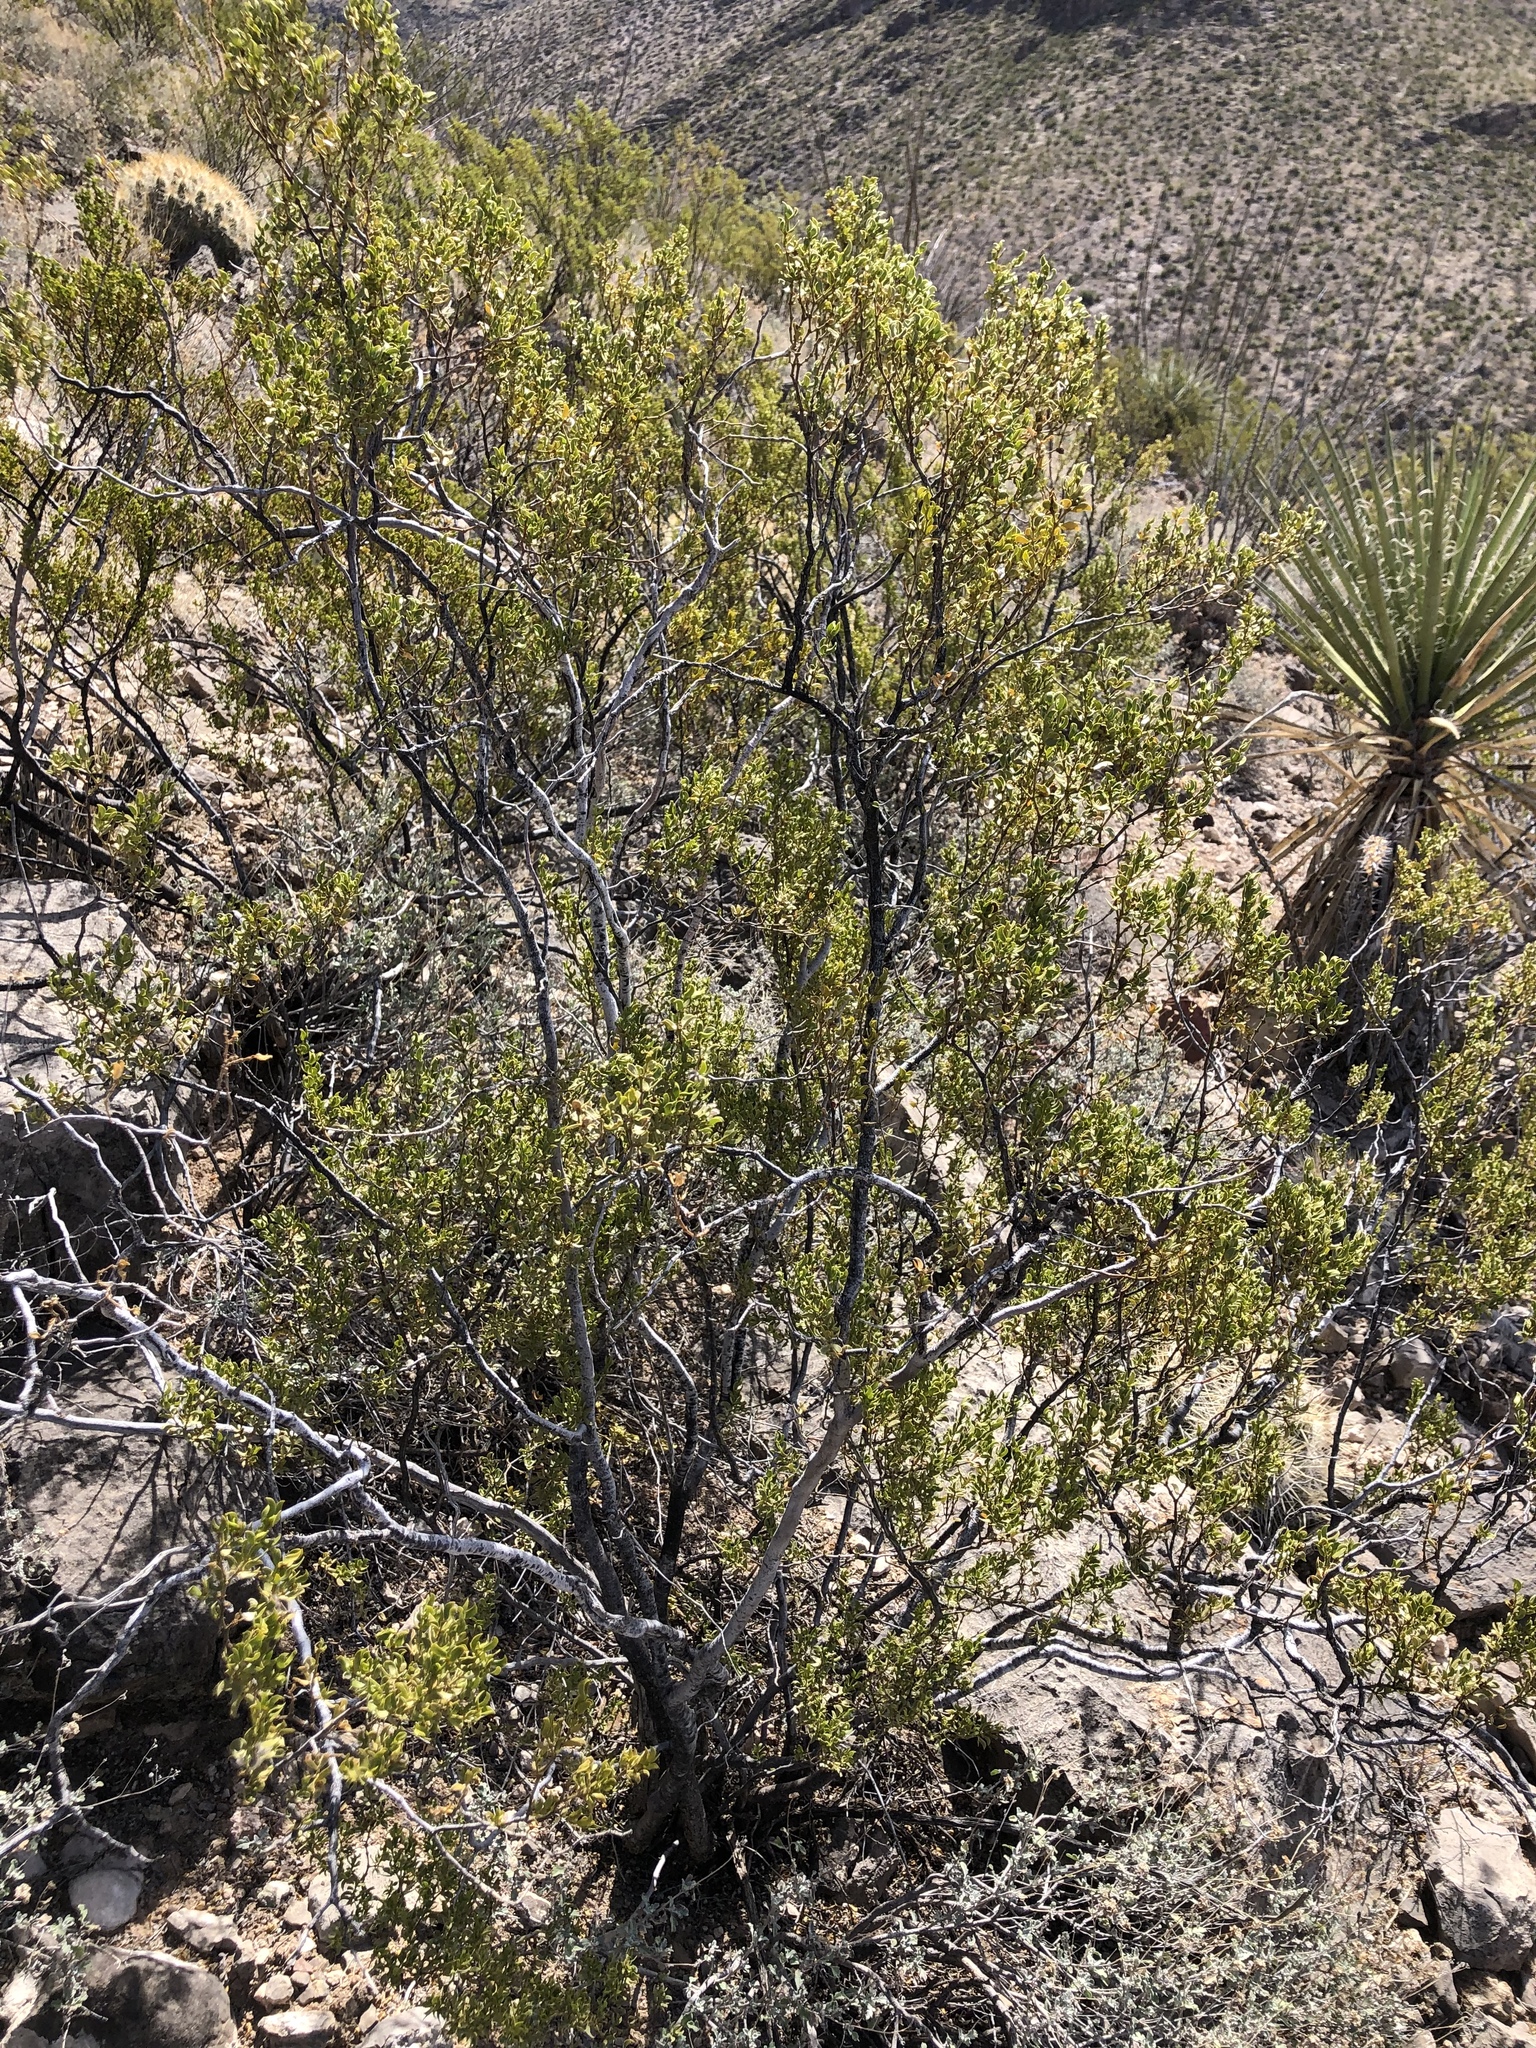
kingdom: Plantae
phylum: Tracheophyta
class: Magnoliopsida
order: Zygophyllales
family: Zygophyllaceae
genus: Larrea
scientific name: Larrea tridentata
